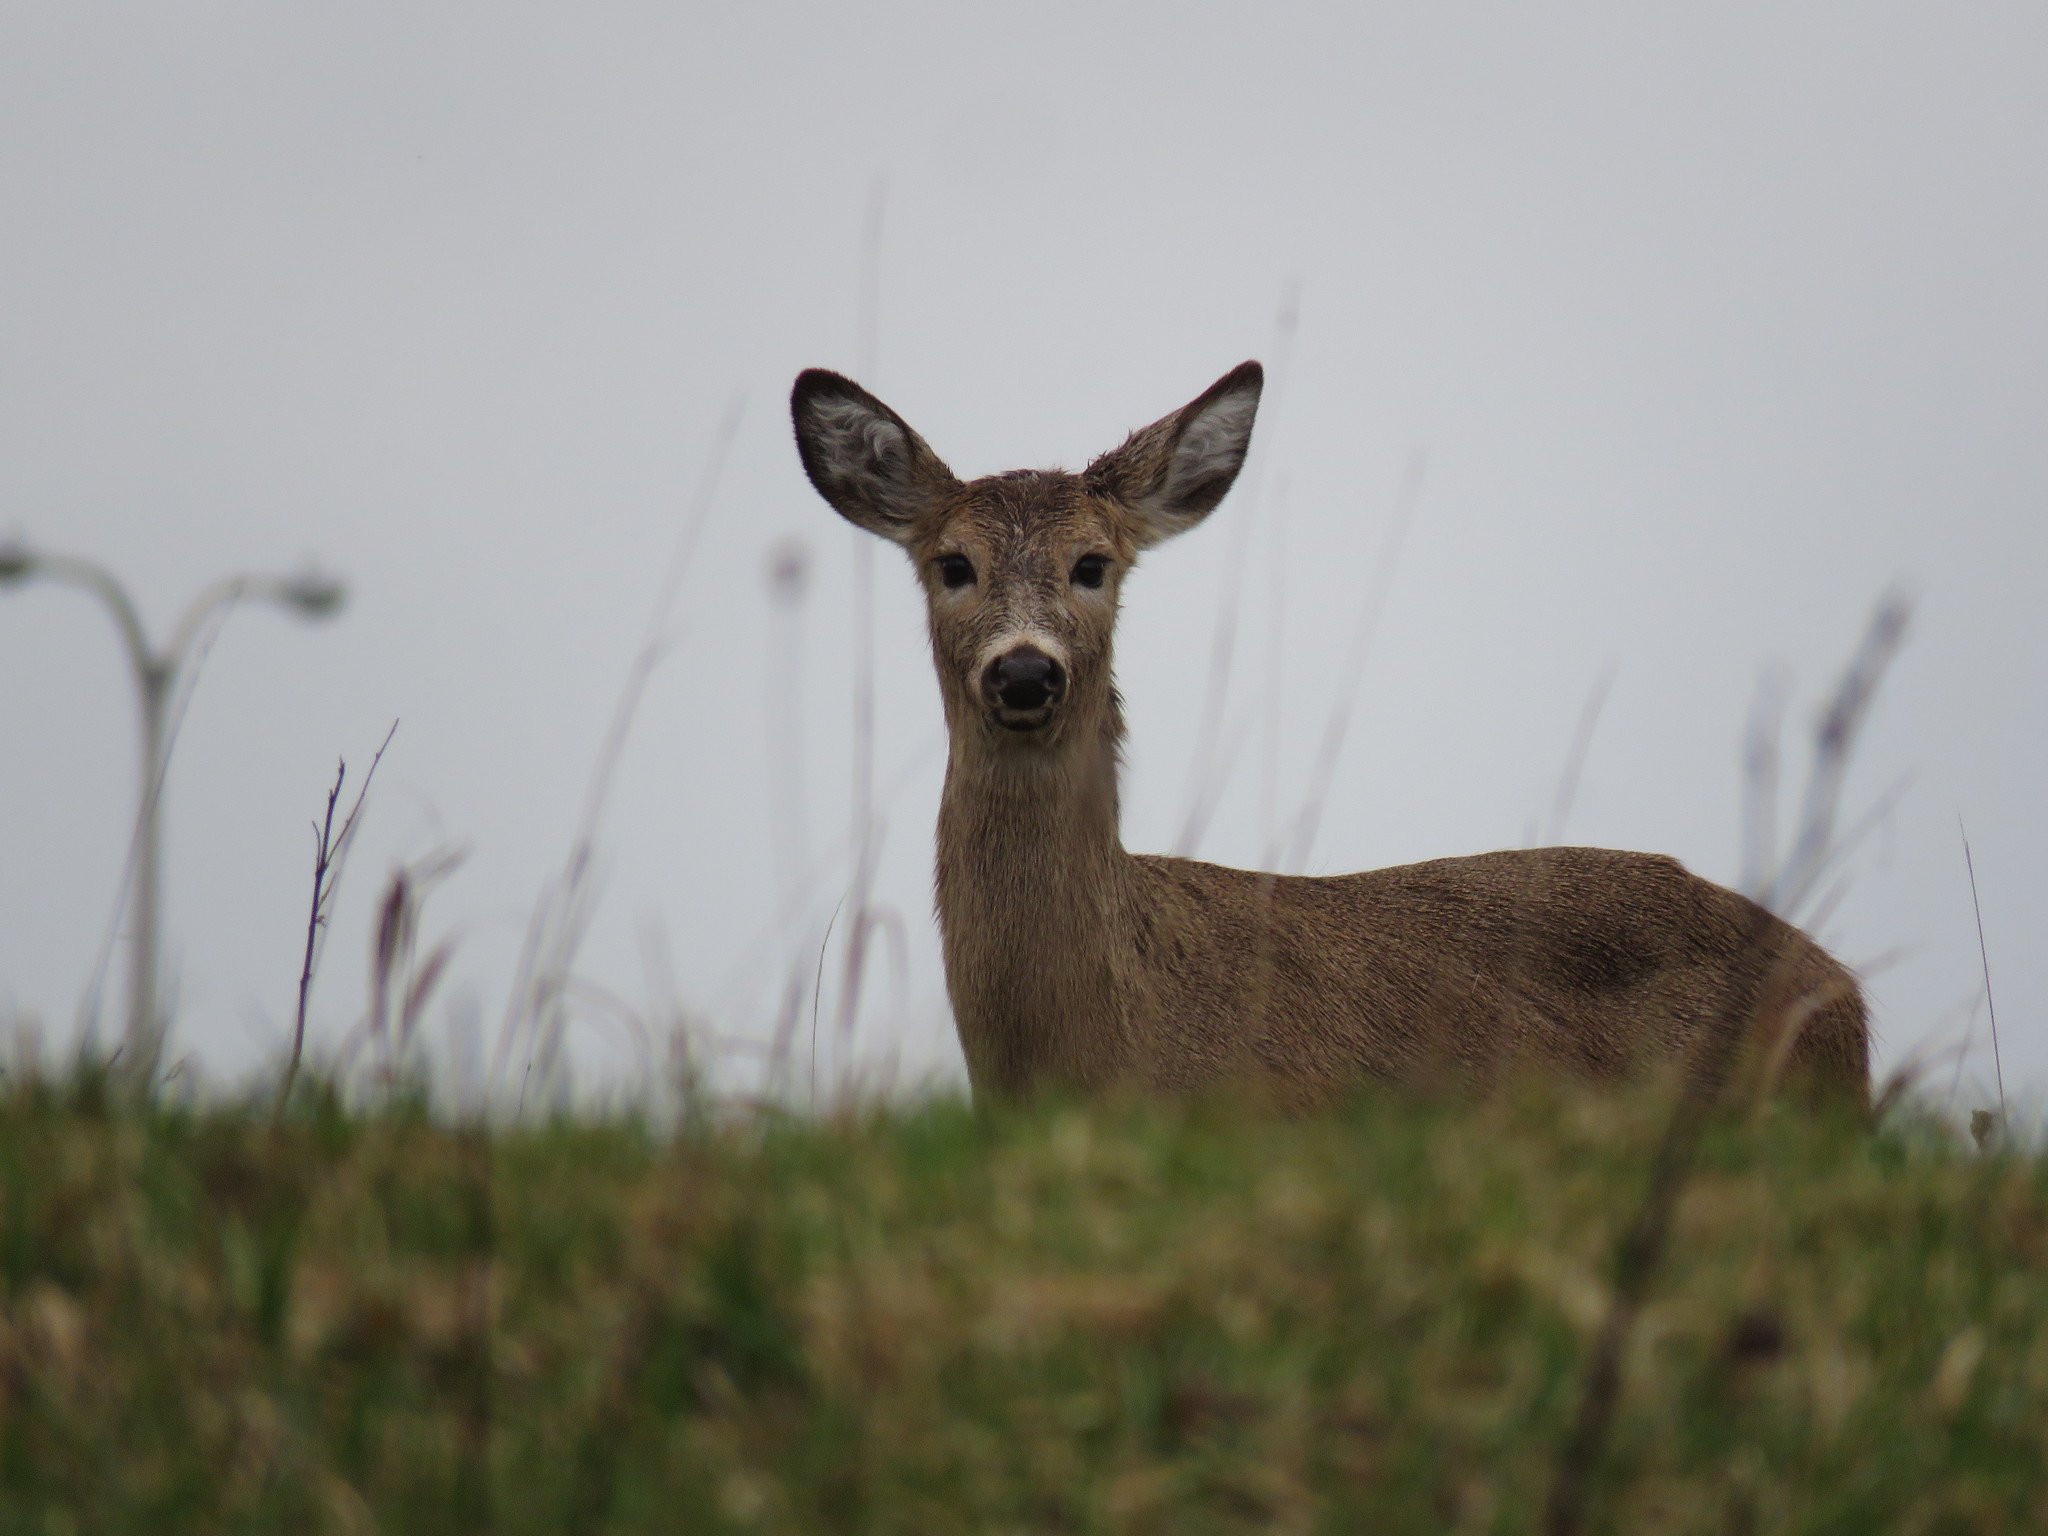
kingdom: Animalia
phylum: Chordata
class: Mammalia
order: Artiodactyla
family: Cervidae
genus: Odocoileus
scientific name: Odocoileus virginianus
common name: White-tailed deer
